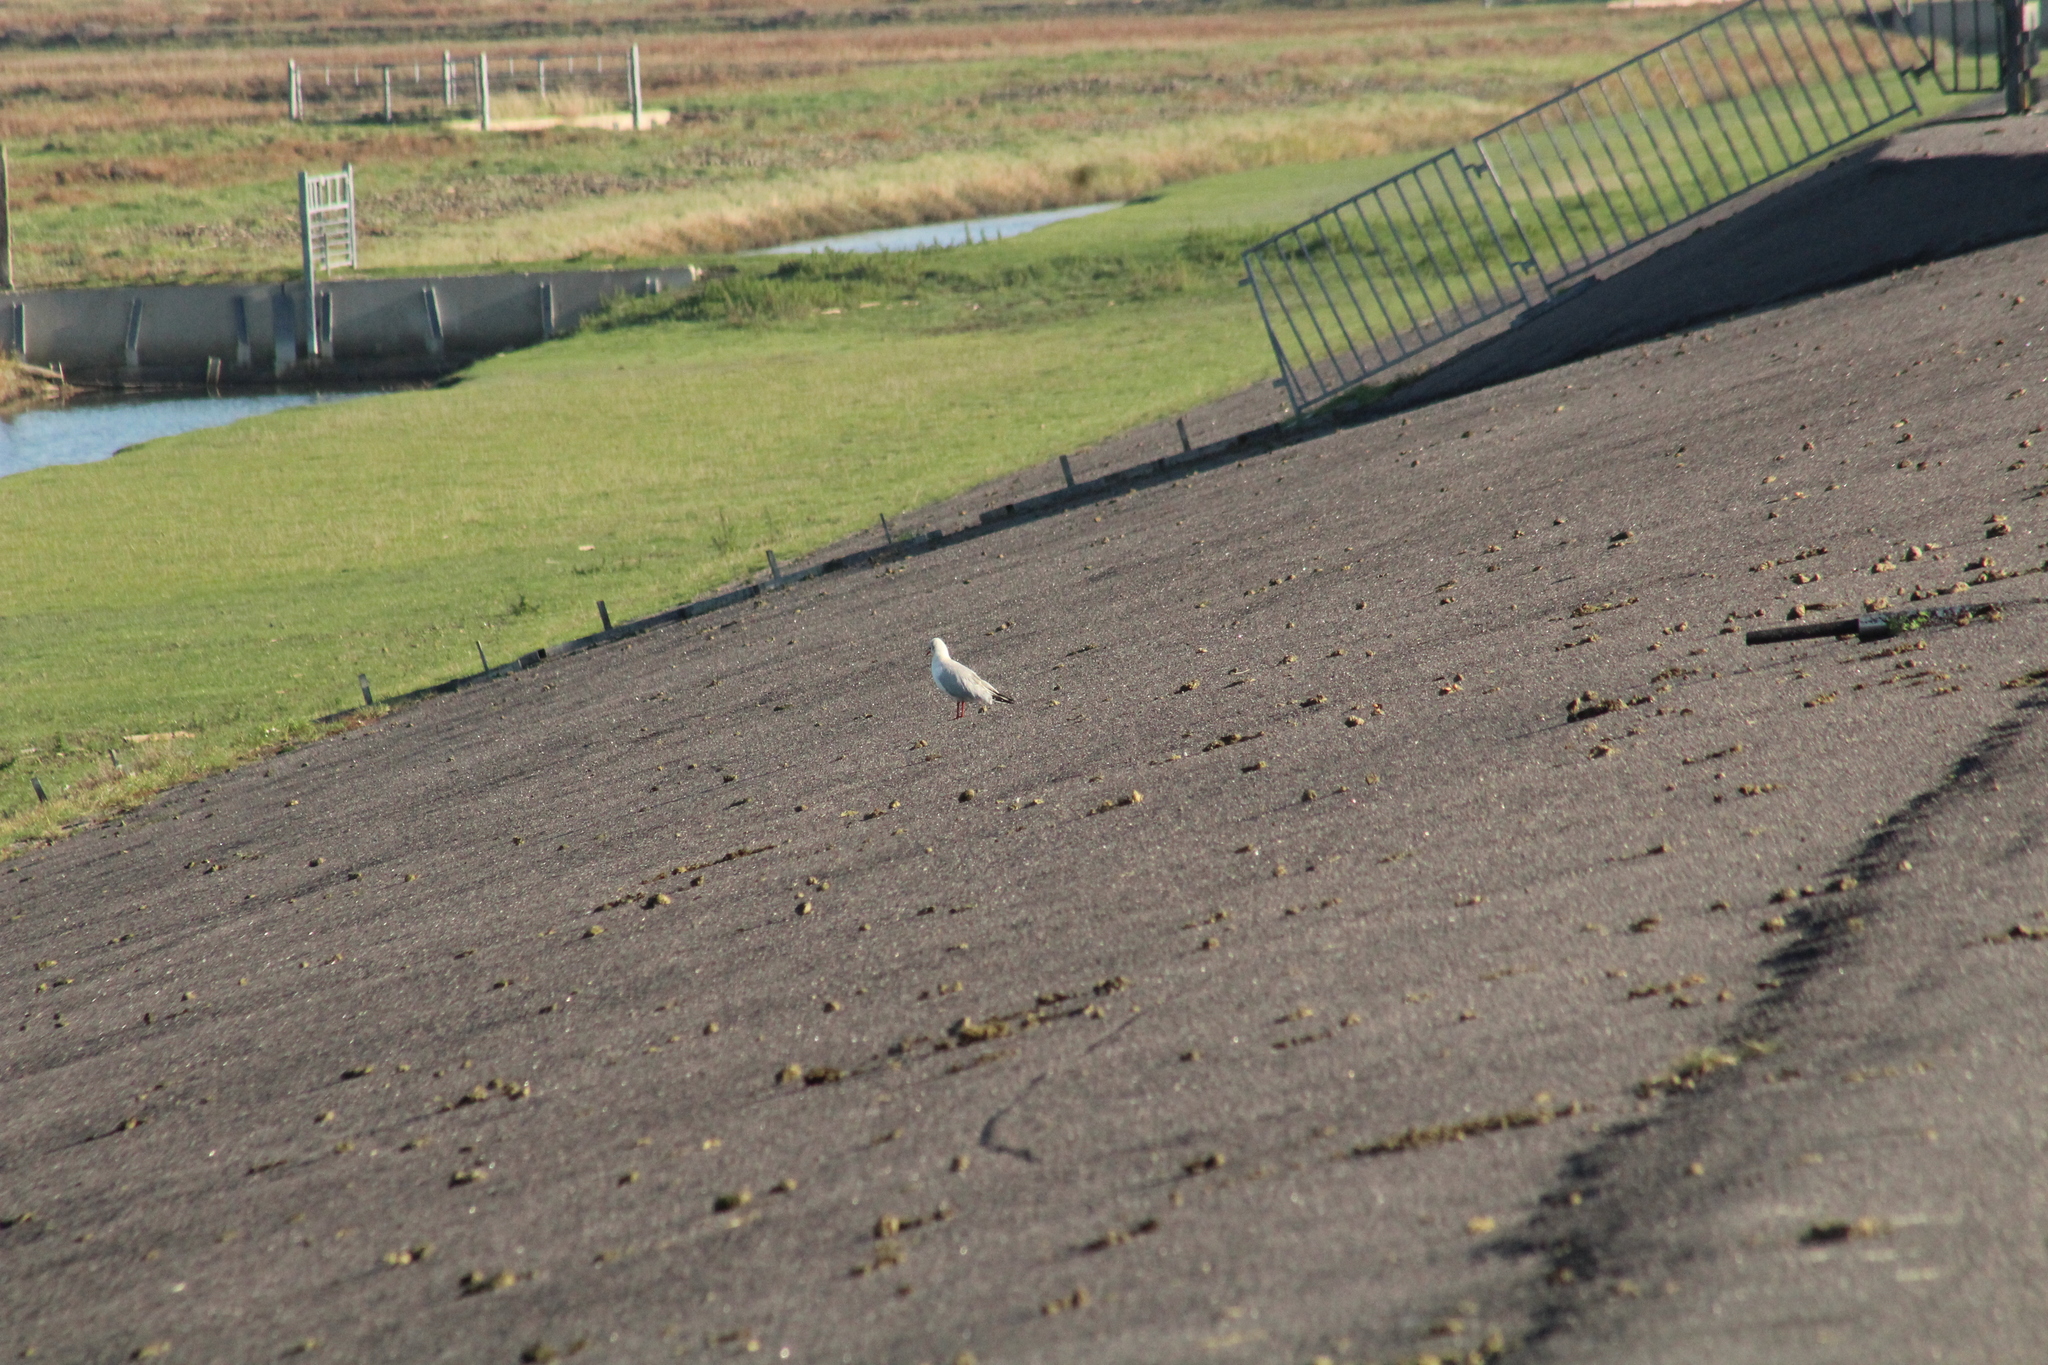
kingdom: Animalia
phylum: Chordata
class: Aves
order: Charadriiformes
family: Laridae
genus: Chroicocephalus
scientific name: Chroicocephalus ridibundus
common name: Black-headed gull
